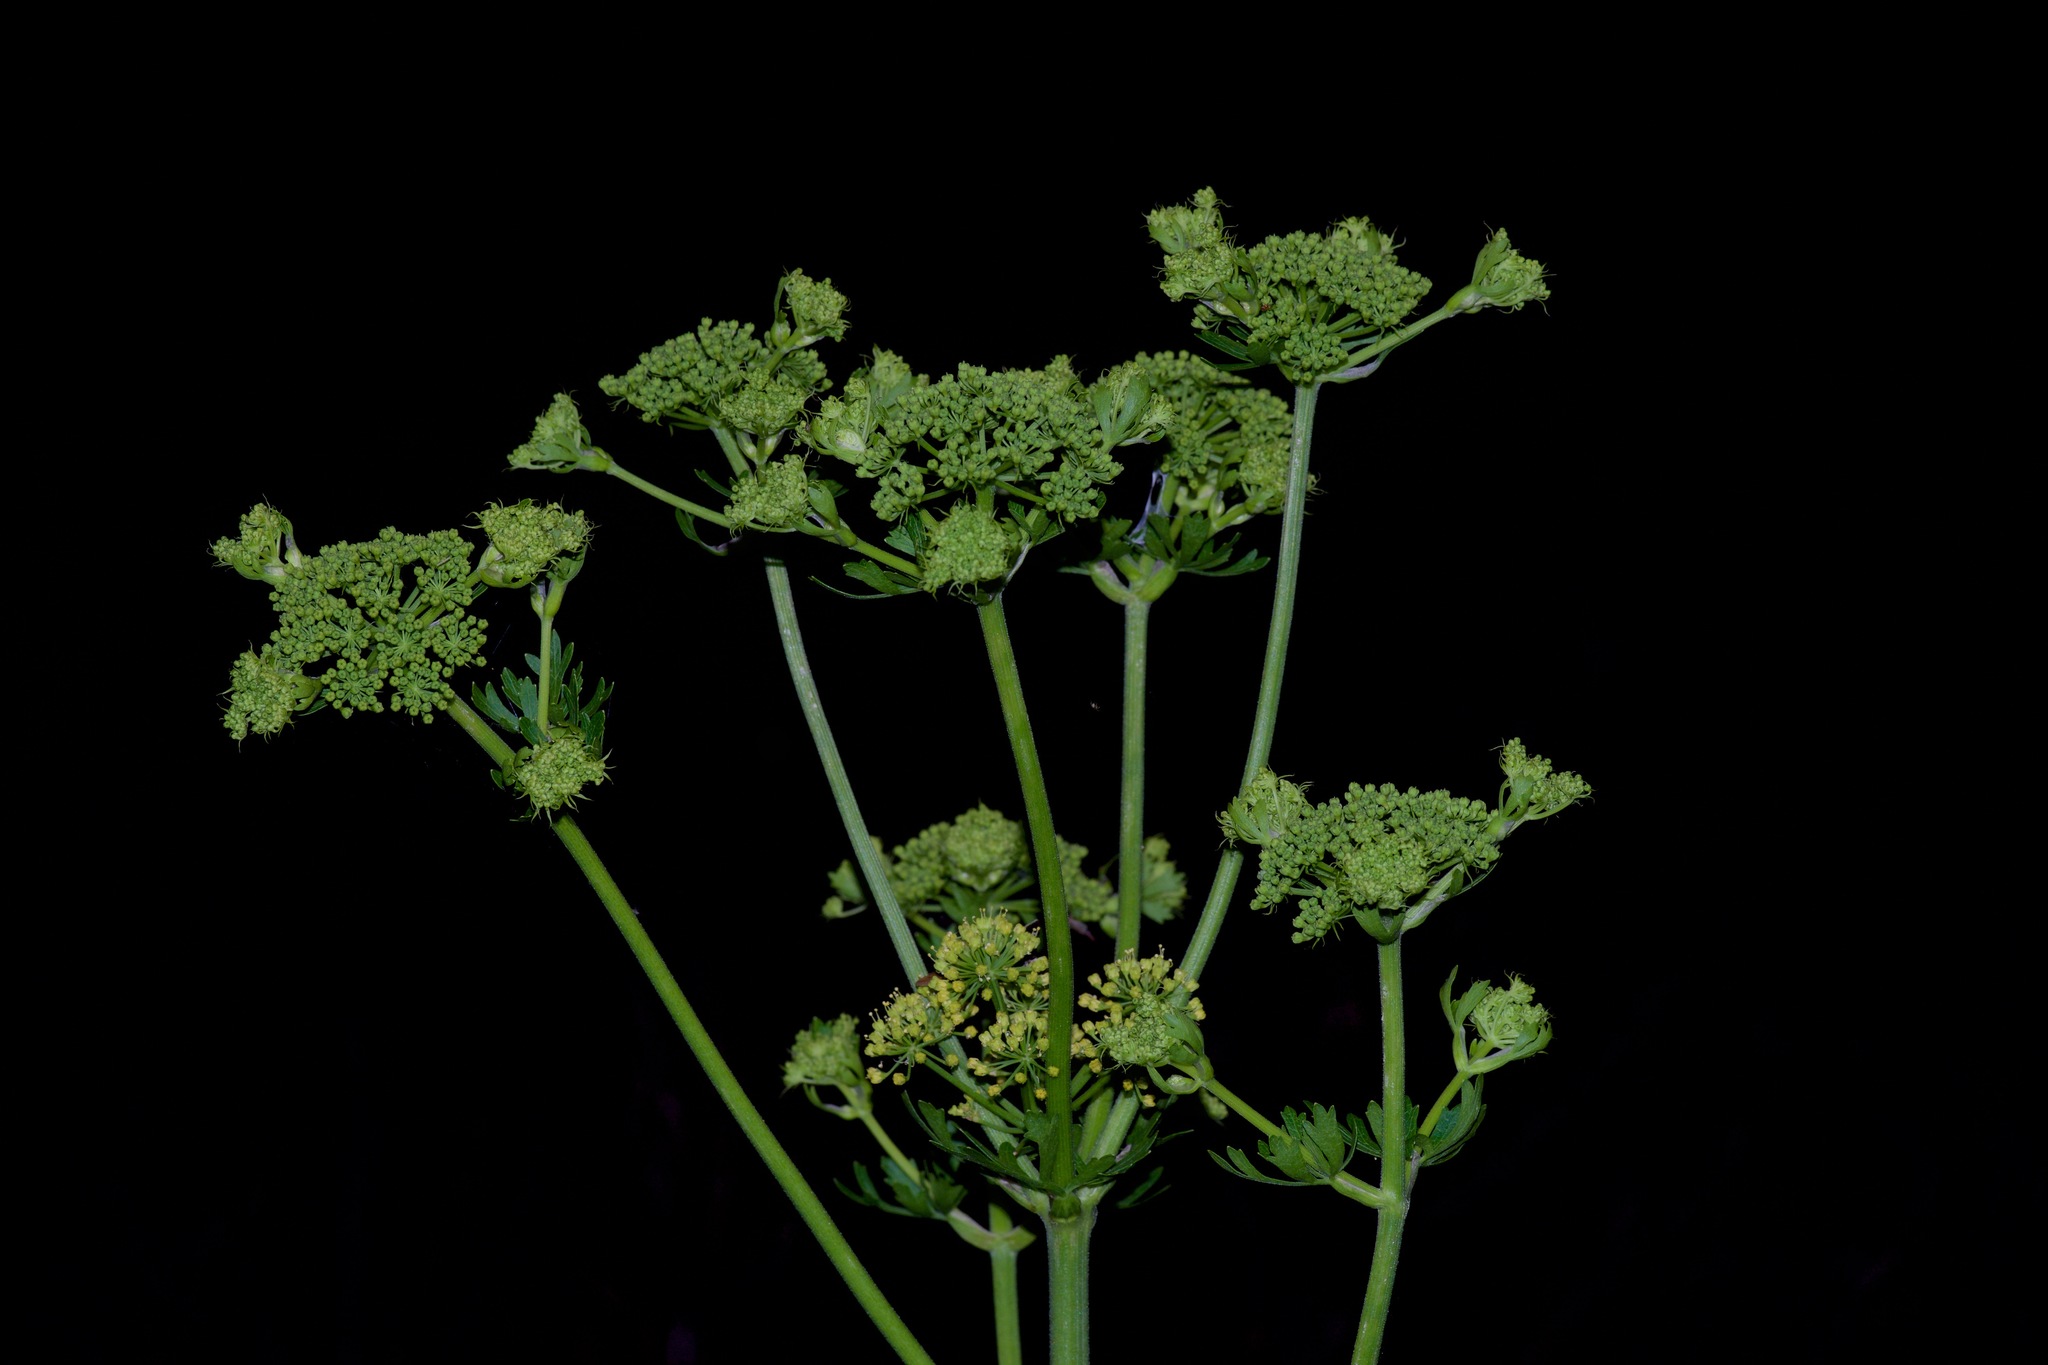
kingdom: Plantae
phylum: Tracheophyta
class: Magnoliopsida
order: Apiales
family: Apiaceae
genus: Polytaenia
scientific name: Polytaenia texana
